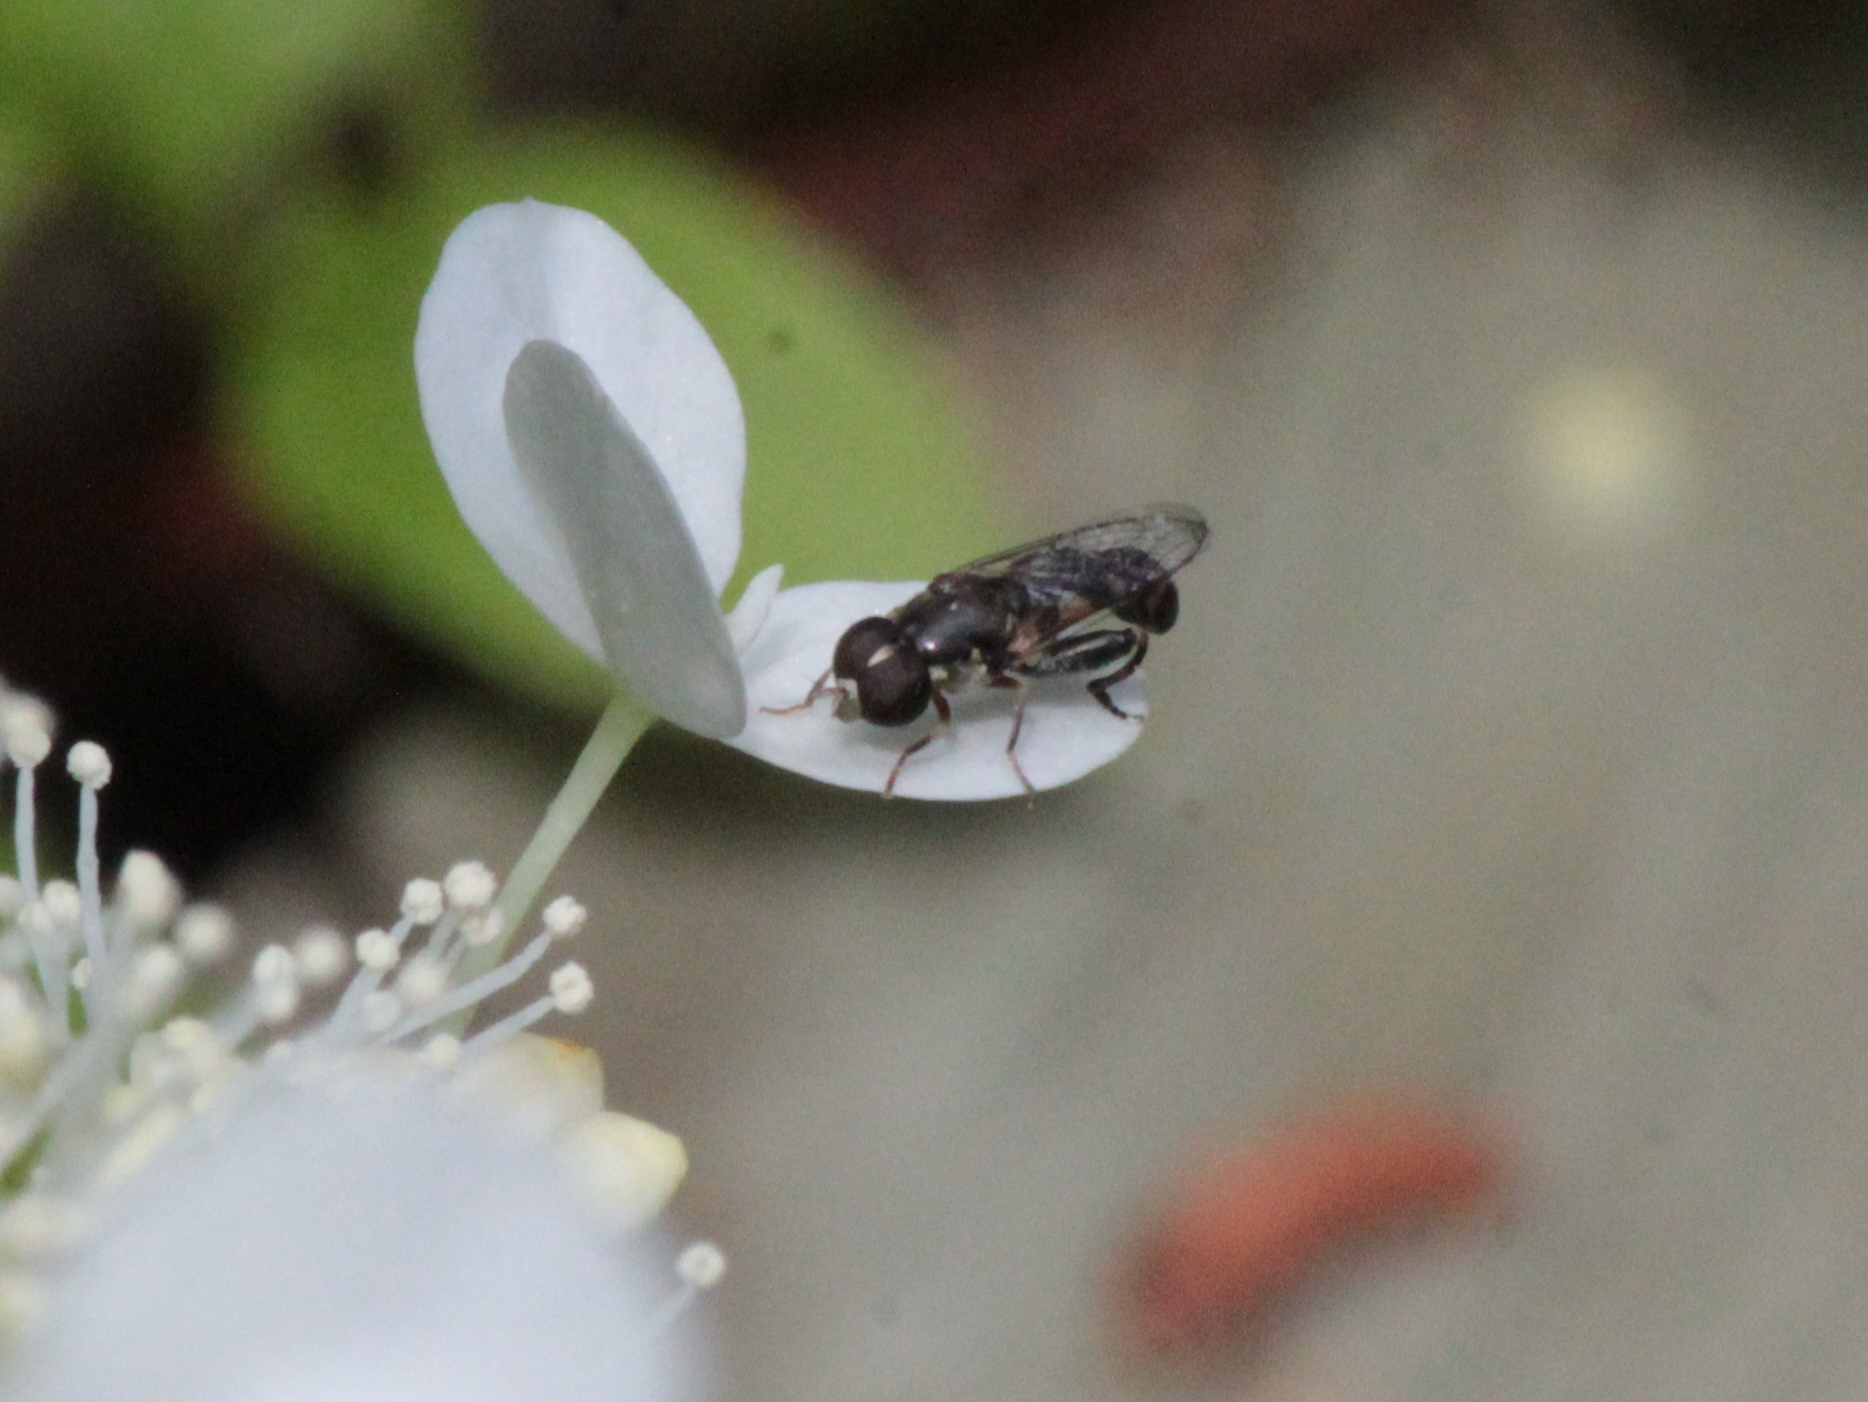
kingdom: Animalia
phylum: Arthropoda
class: Insecta
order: Diptera
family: Syrphidae
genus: Syritta
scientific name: Syritta pipiens
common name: Hover fly
